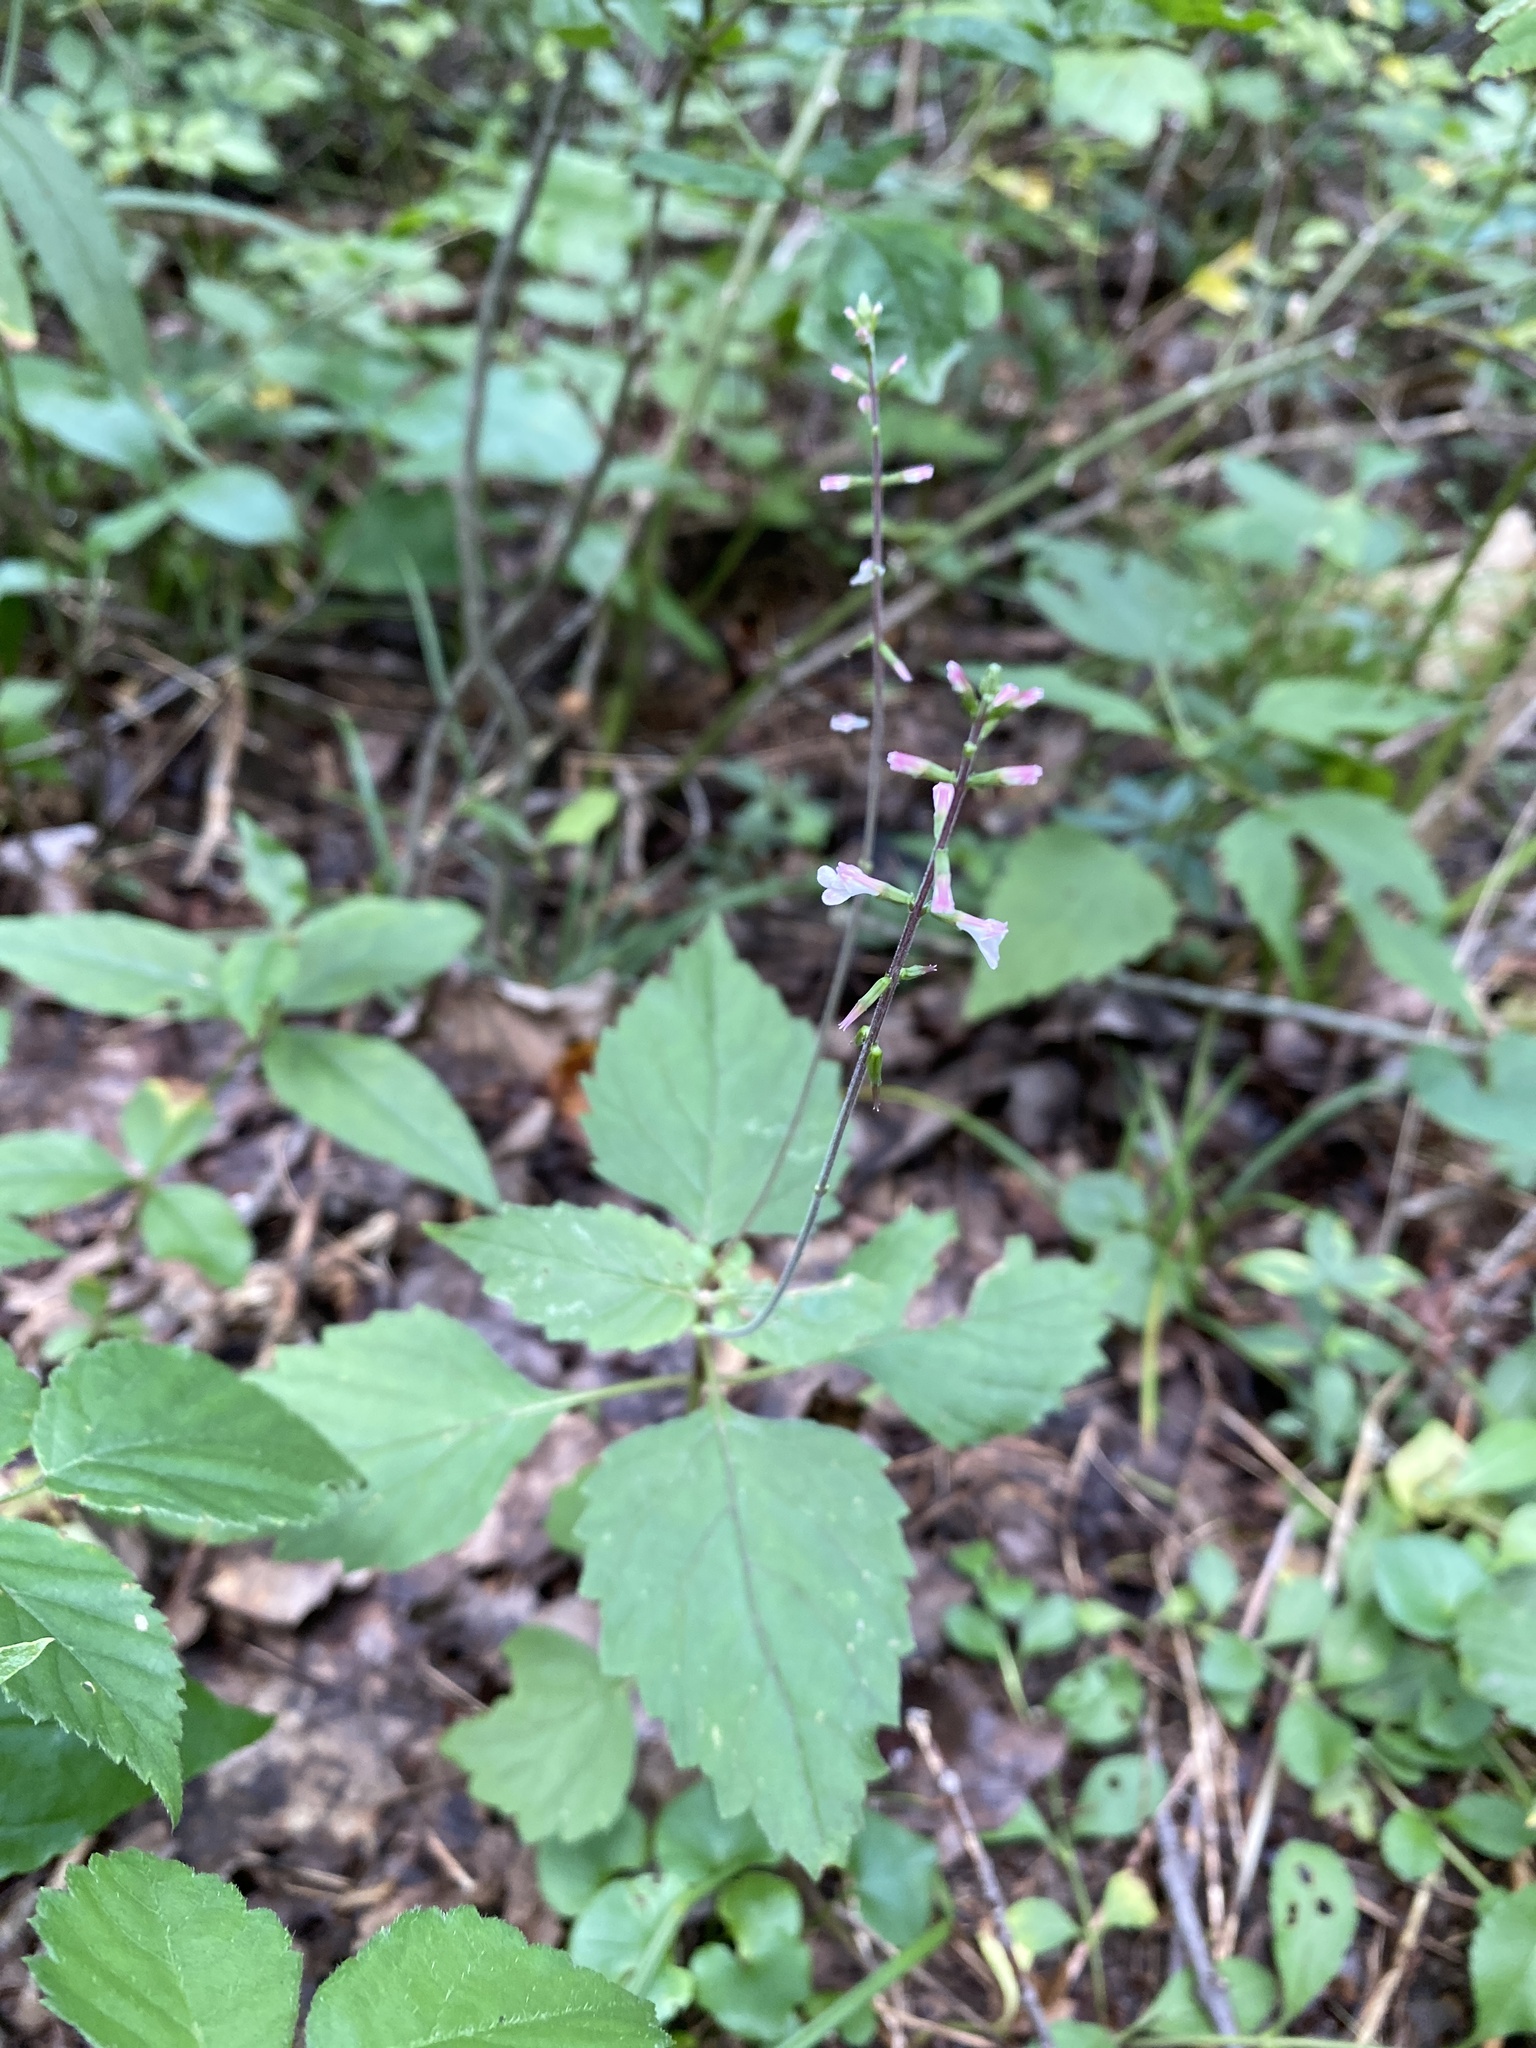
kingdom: Plantae
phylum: Tracheophyta
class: Magnoliopsida
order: Lamiales
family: Phrymaceae
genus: Phryma
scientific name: Phryma leptostachya
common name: American lopseed
